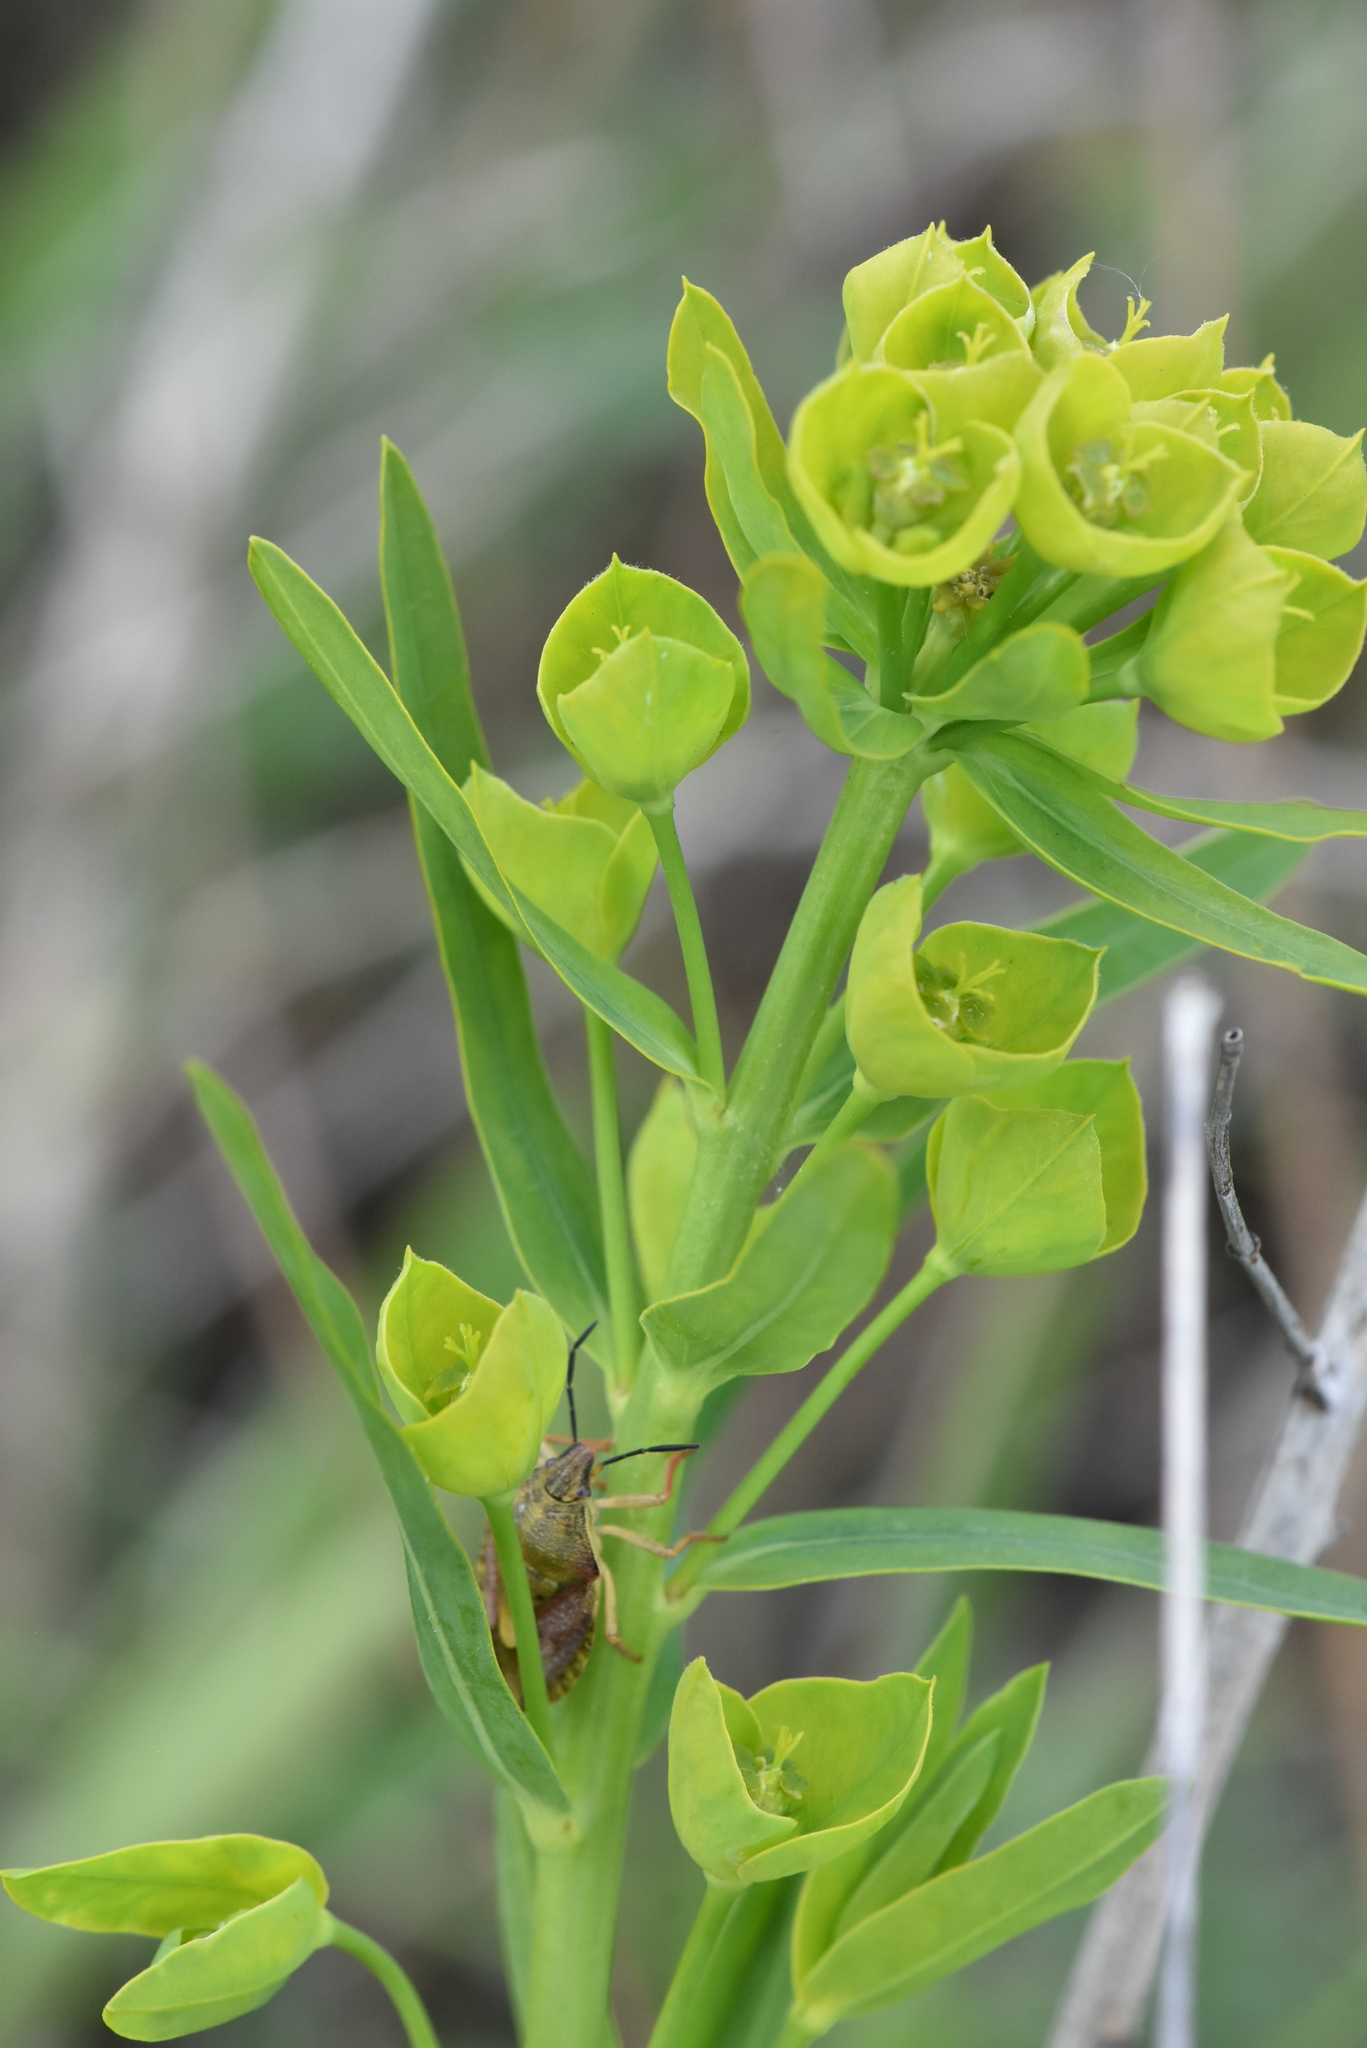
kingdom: Plantae
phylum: Tracheophyta
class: Magnoliopsida
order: Malpighiales
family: Euphorbiaceae
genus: Euphorbia
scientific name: Euphorbia virgata
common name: Leafy spurge
